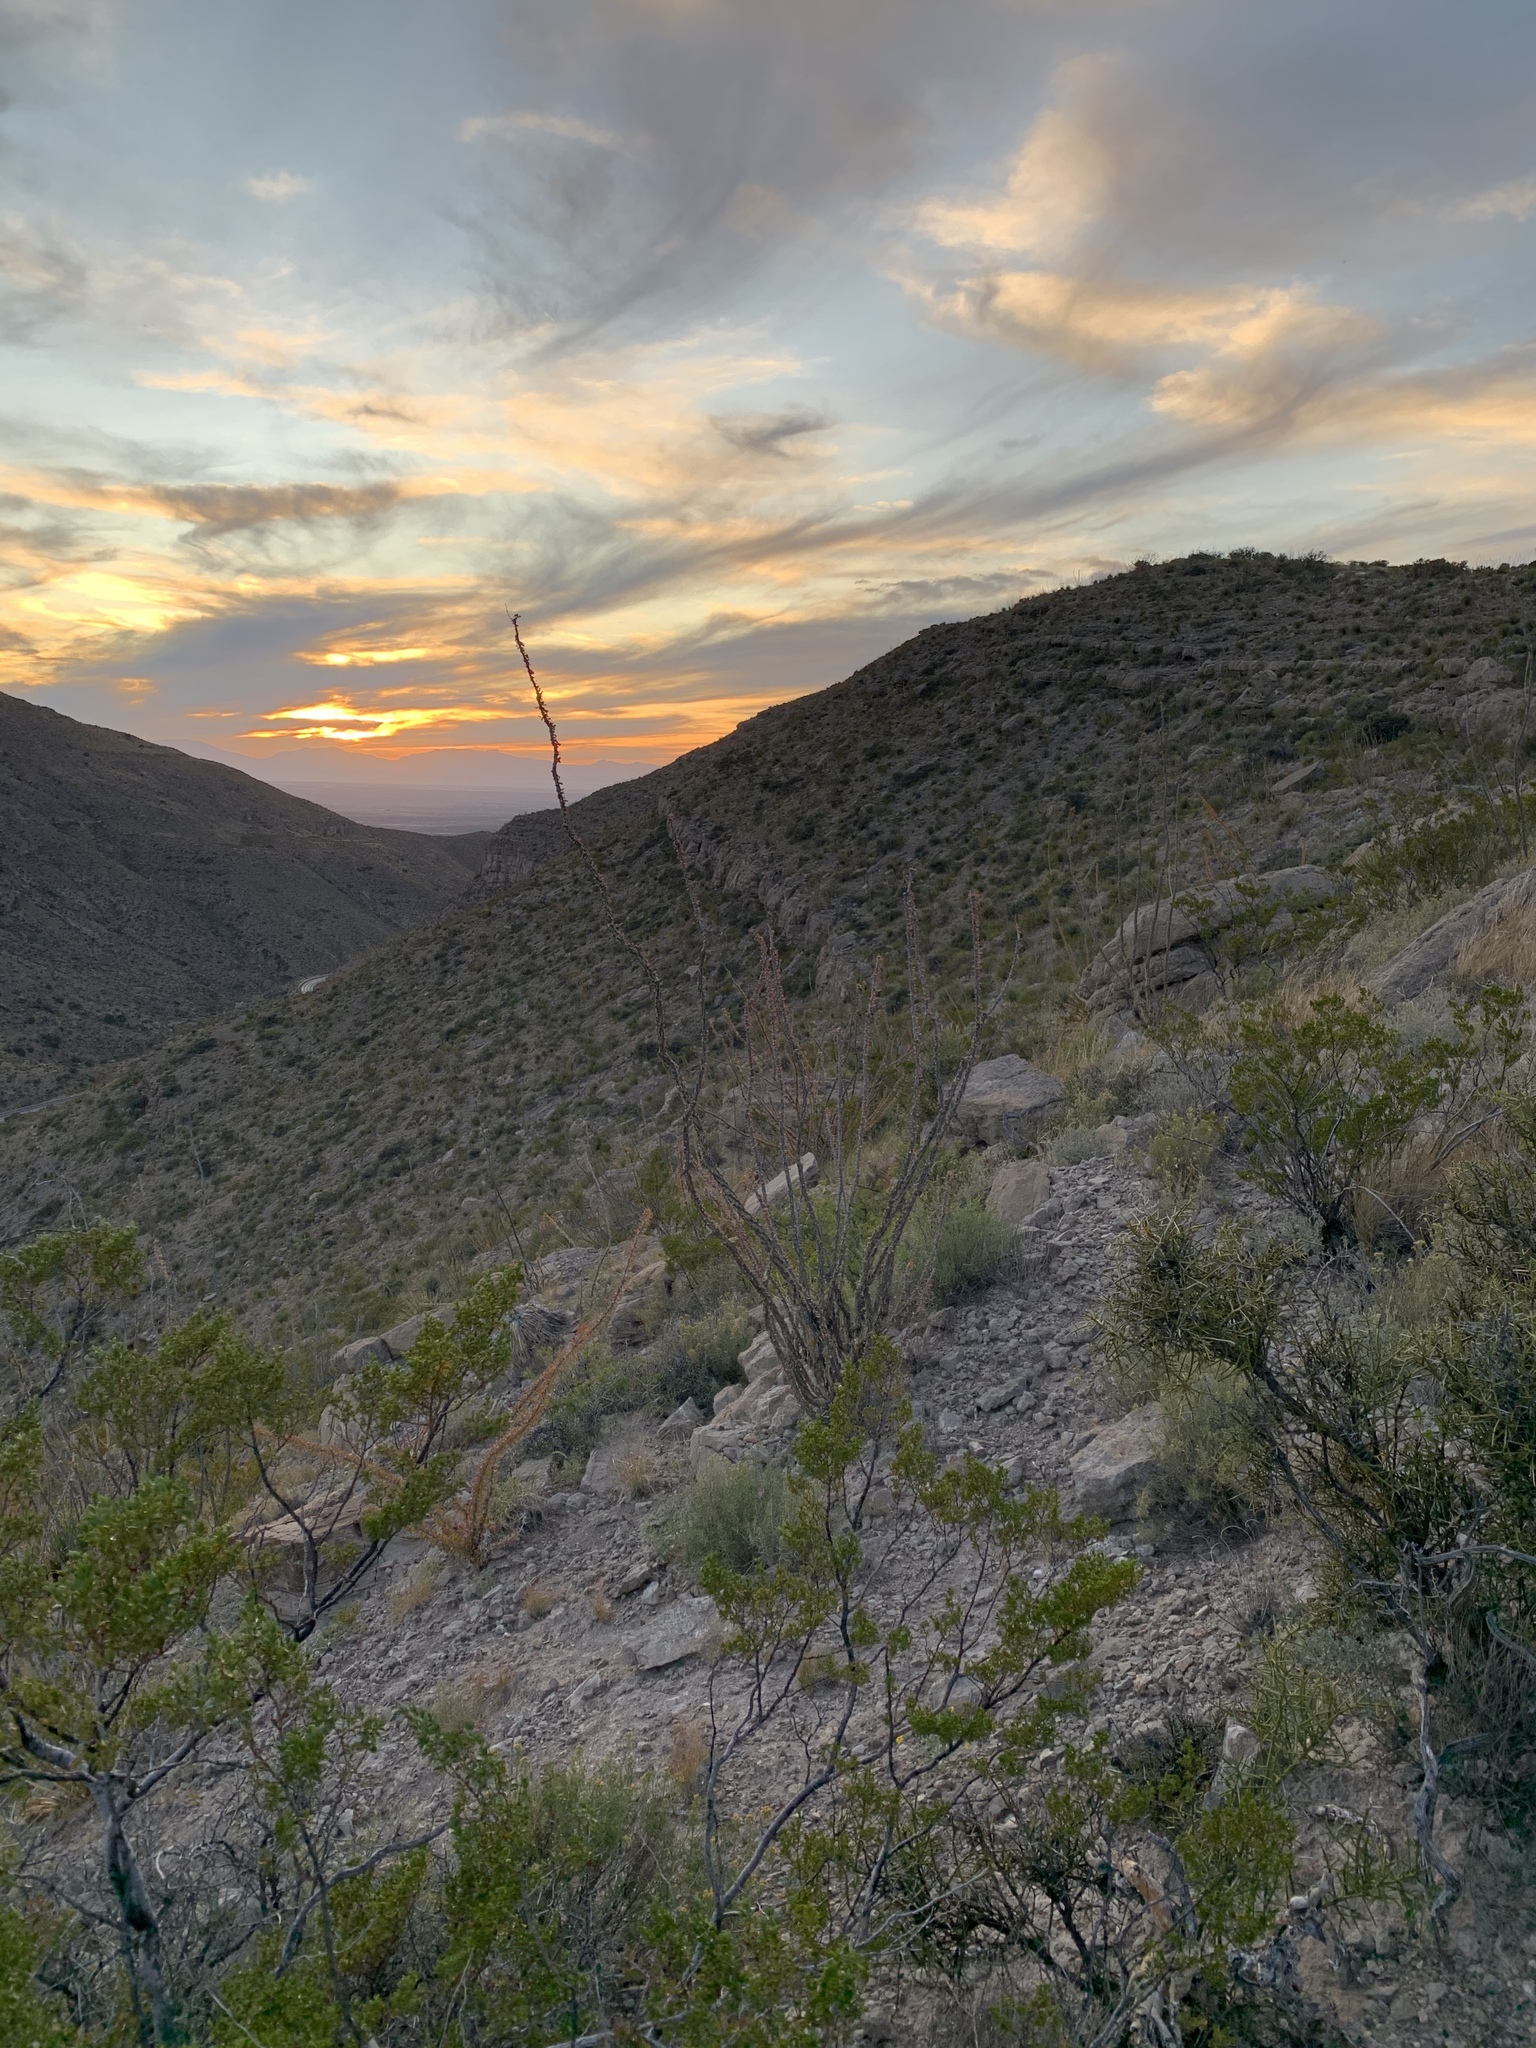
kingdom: Plantae
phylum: Tracheophyta
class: Magnoliopsida
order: Ericales
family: Fouquieriaceae
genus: Fouquieria
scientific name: Fouquieria splendens
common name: Vine-cactus
